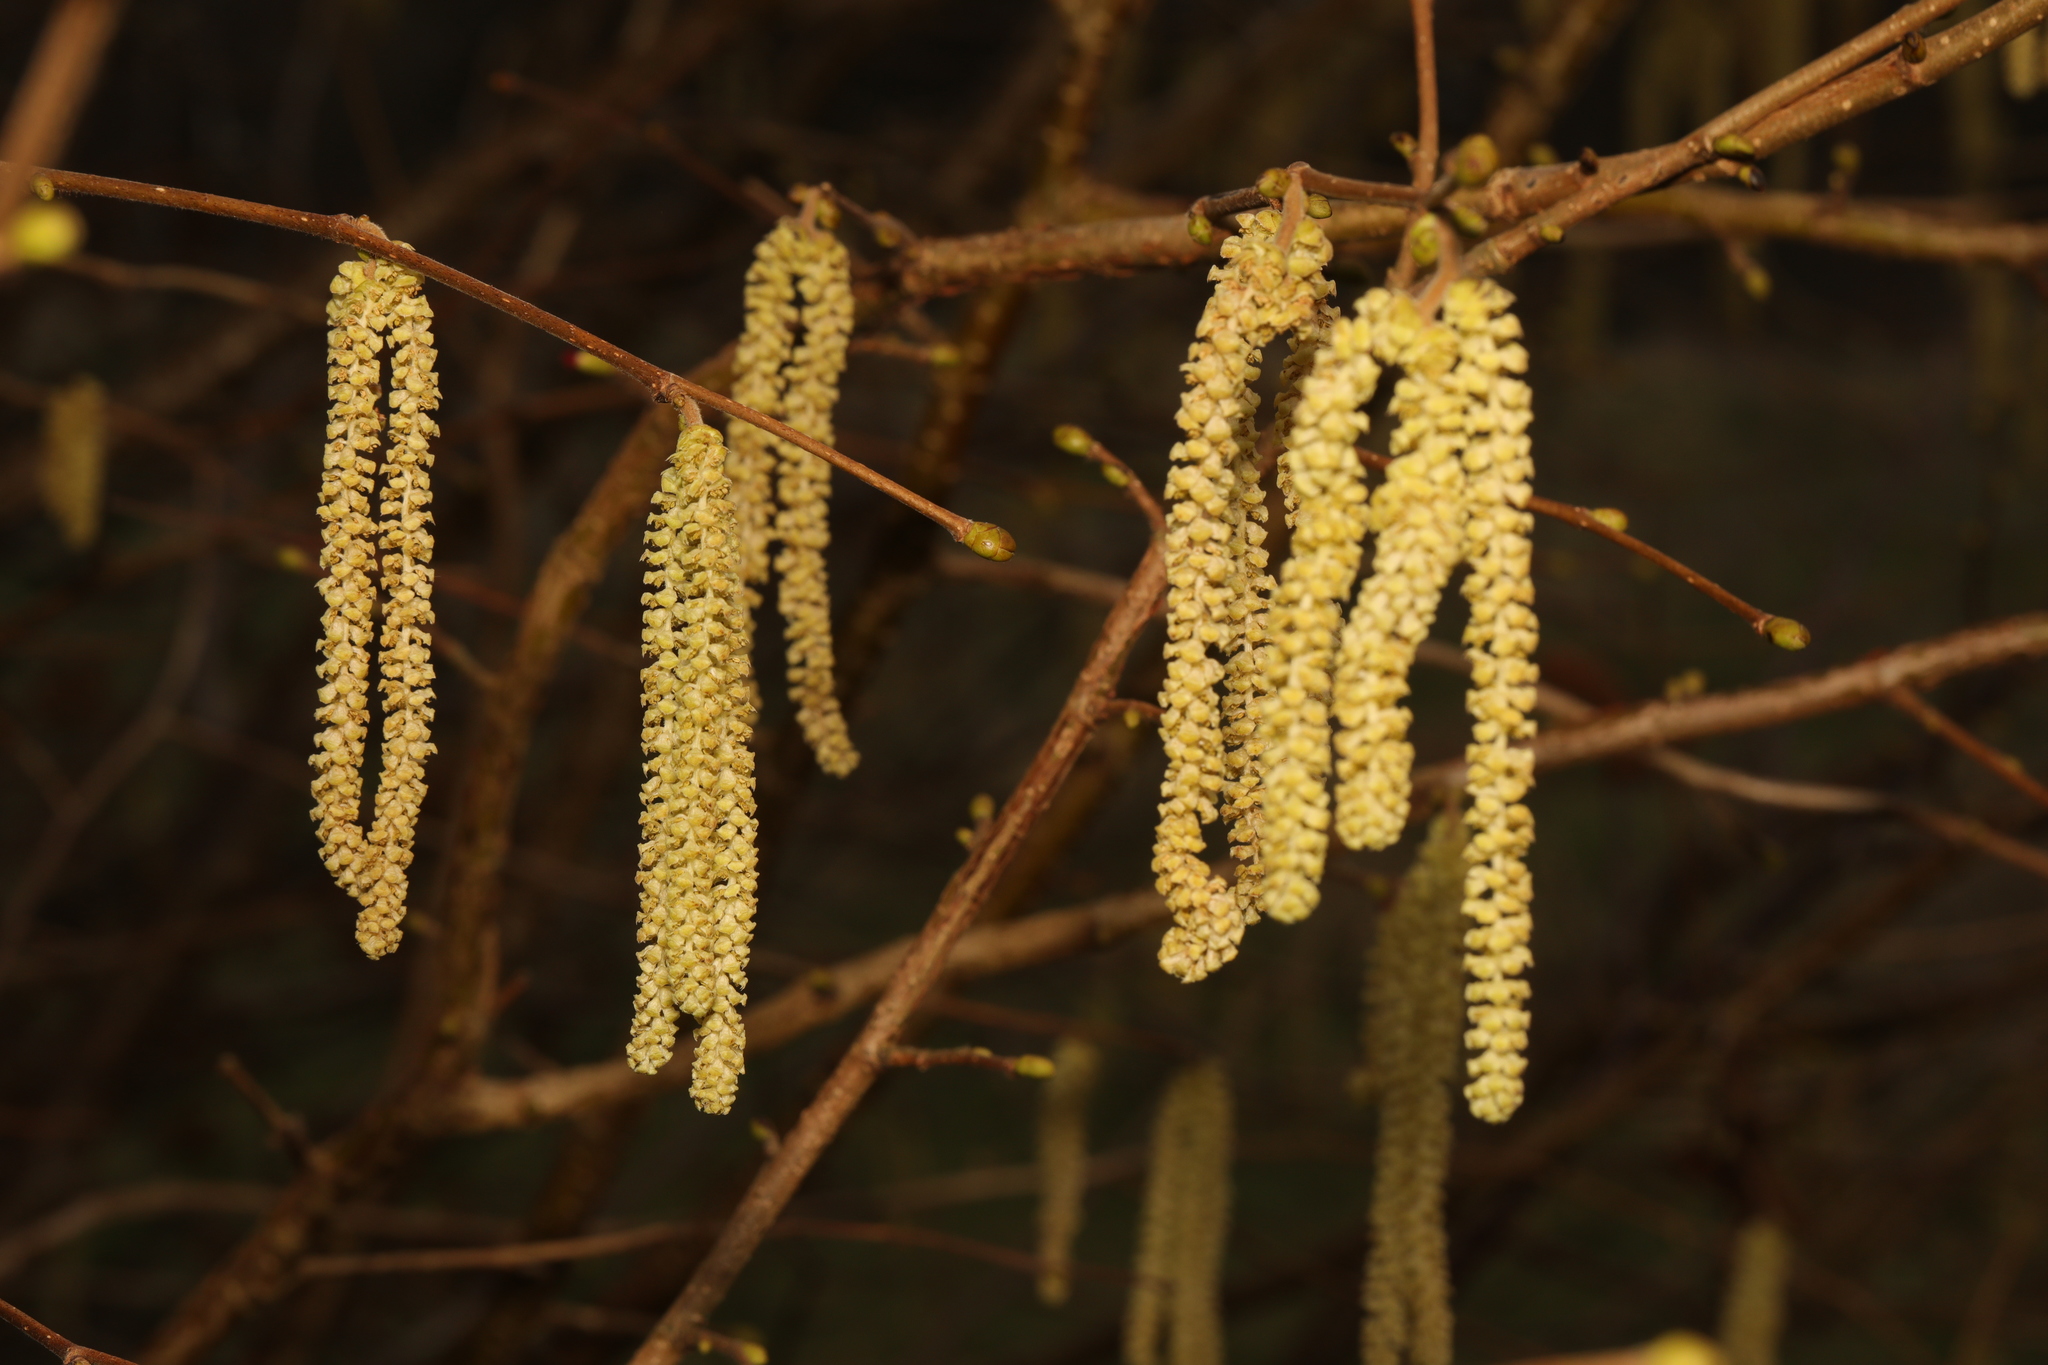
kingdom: Plantae
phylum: Tracheophyta
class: Magnoliopsida
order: Fagales
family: Betulaceae
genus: Corylus
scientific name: Corylus avellana
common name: European hazel
